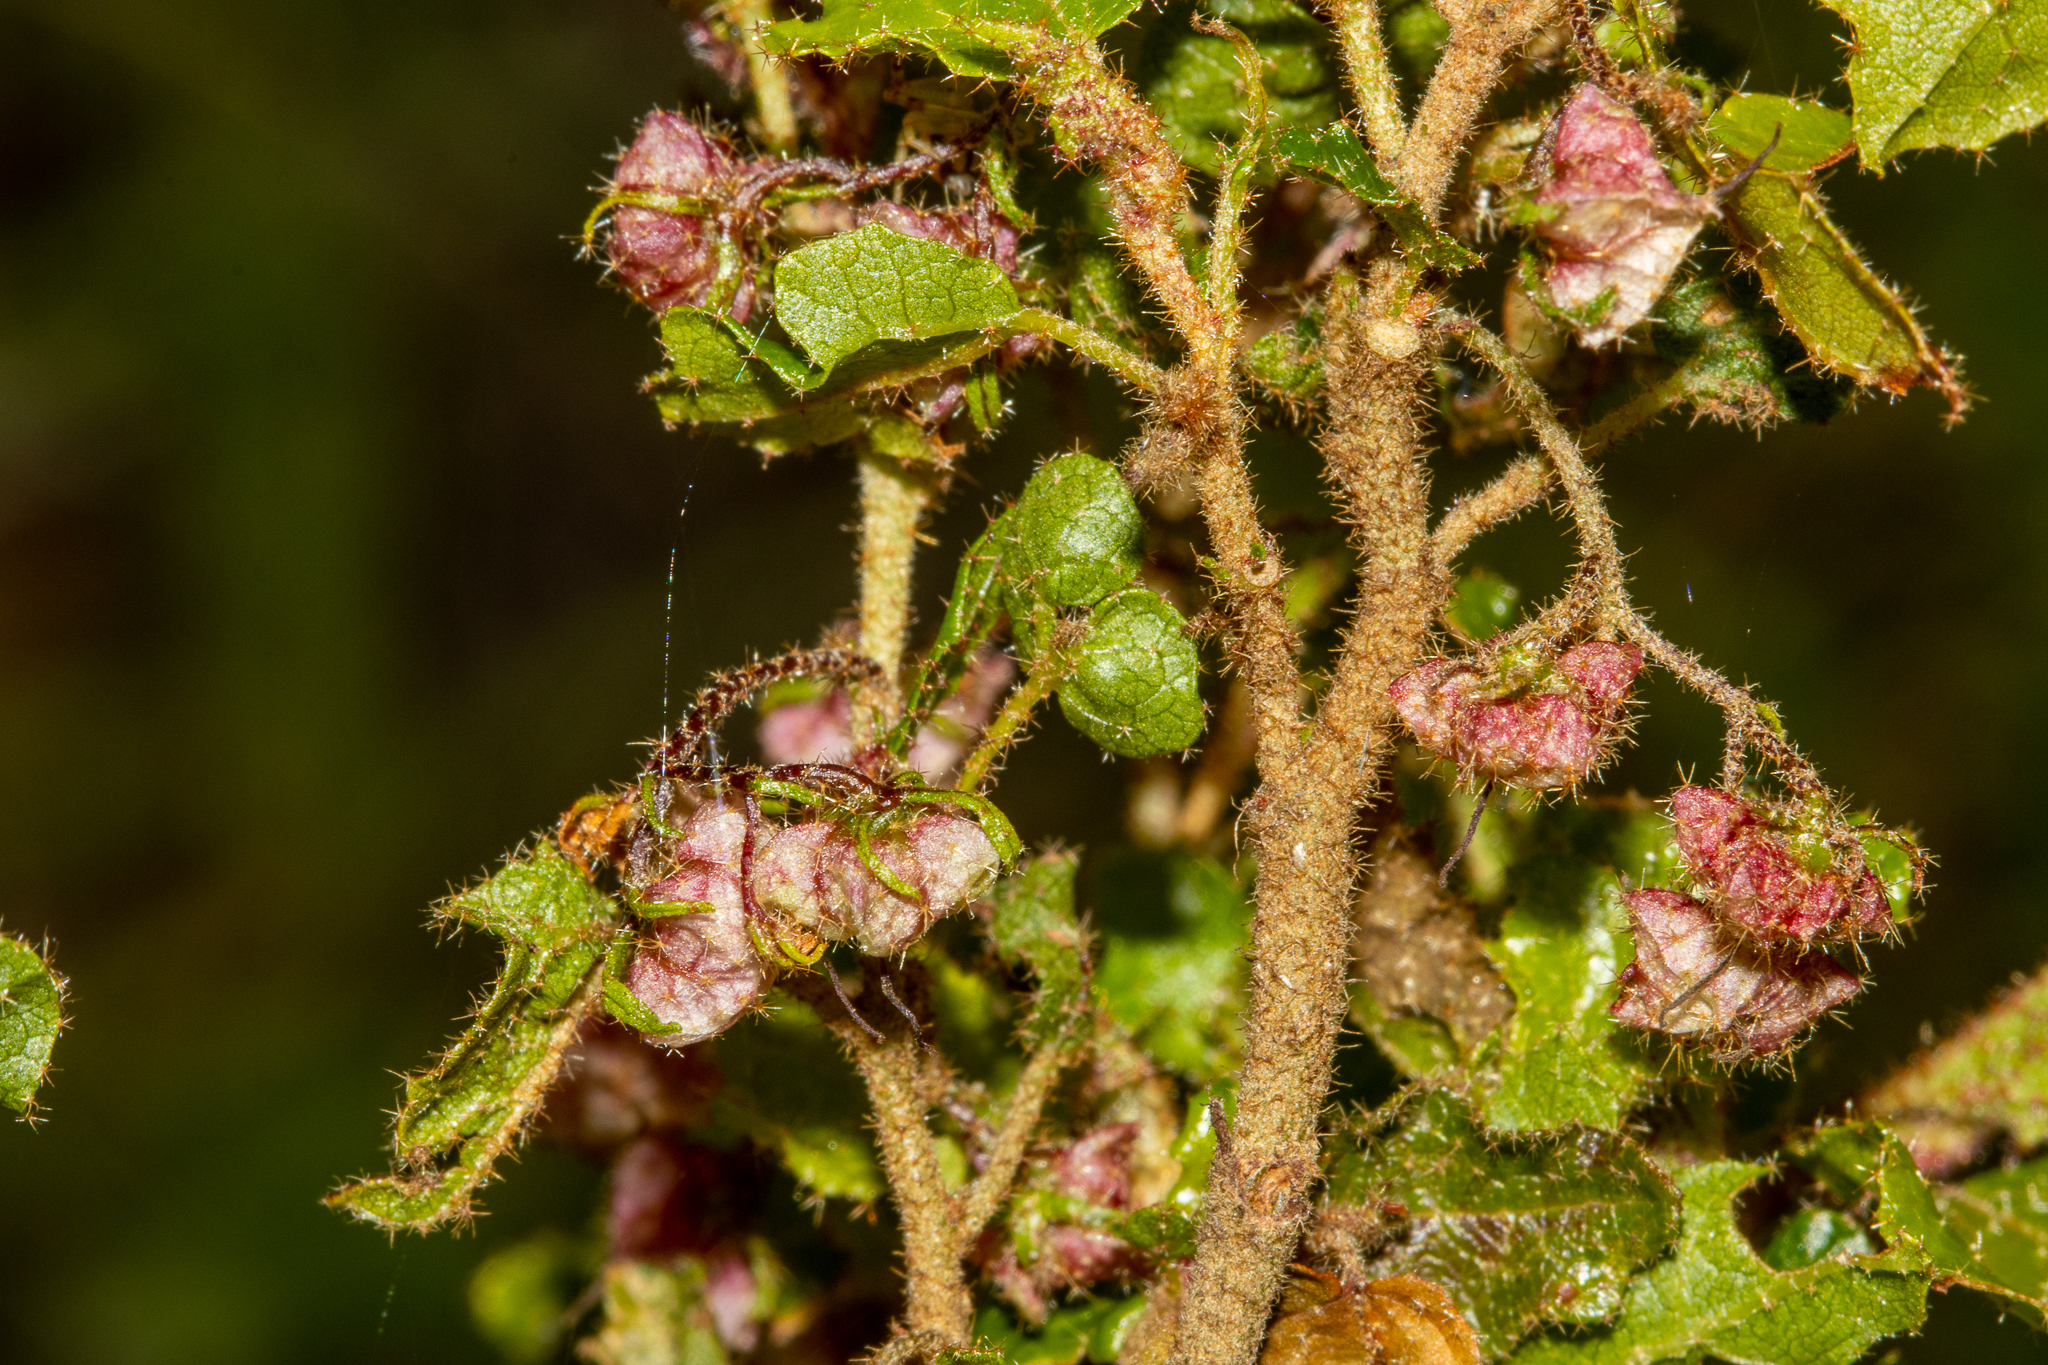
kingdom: Plantae
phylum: Tracheophyta
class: Magnoliopsida
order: Malvales
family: Malvaceae
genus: Thomasia
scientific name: Thomasia foliosa
